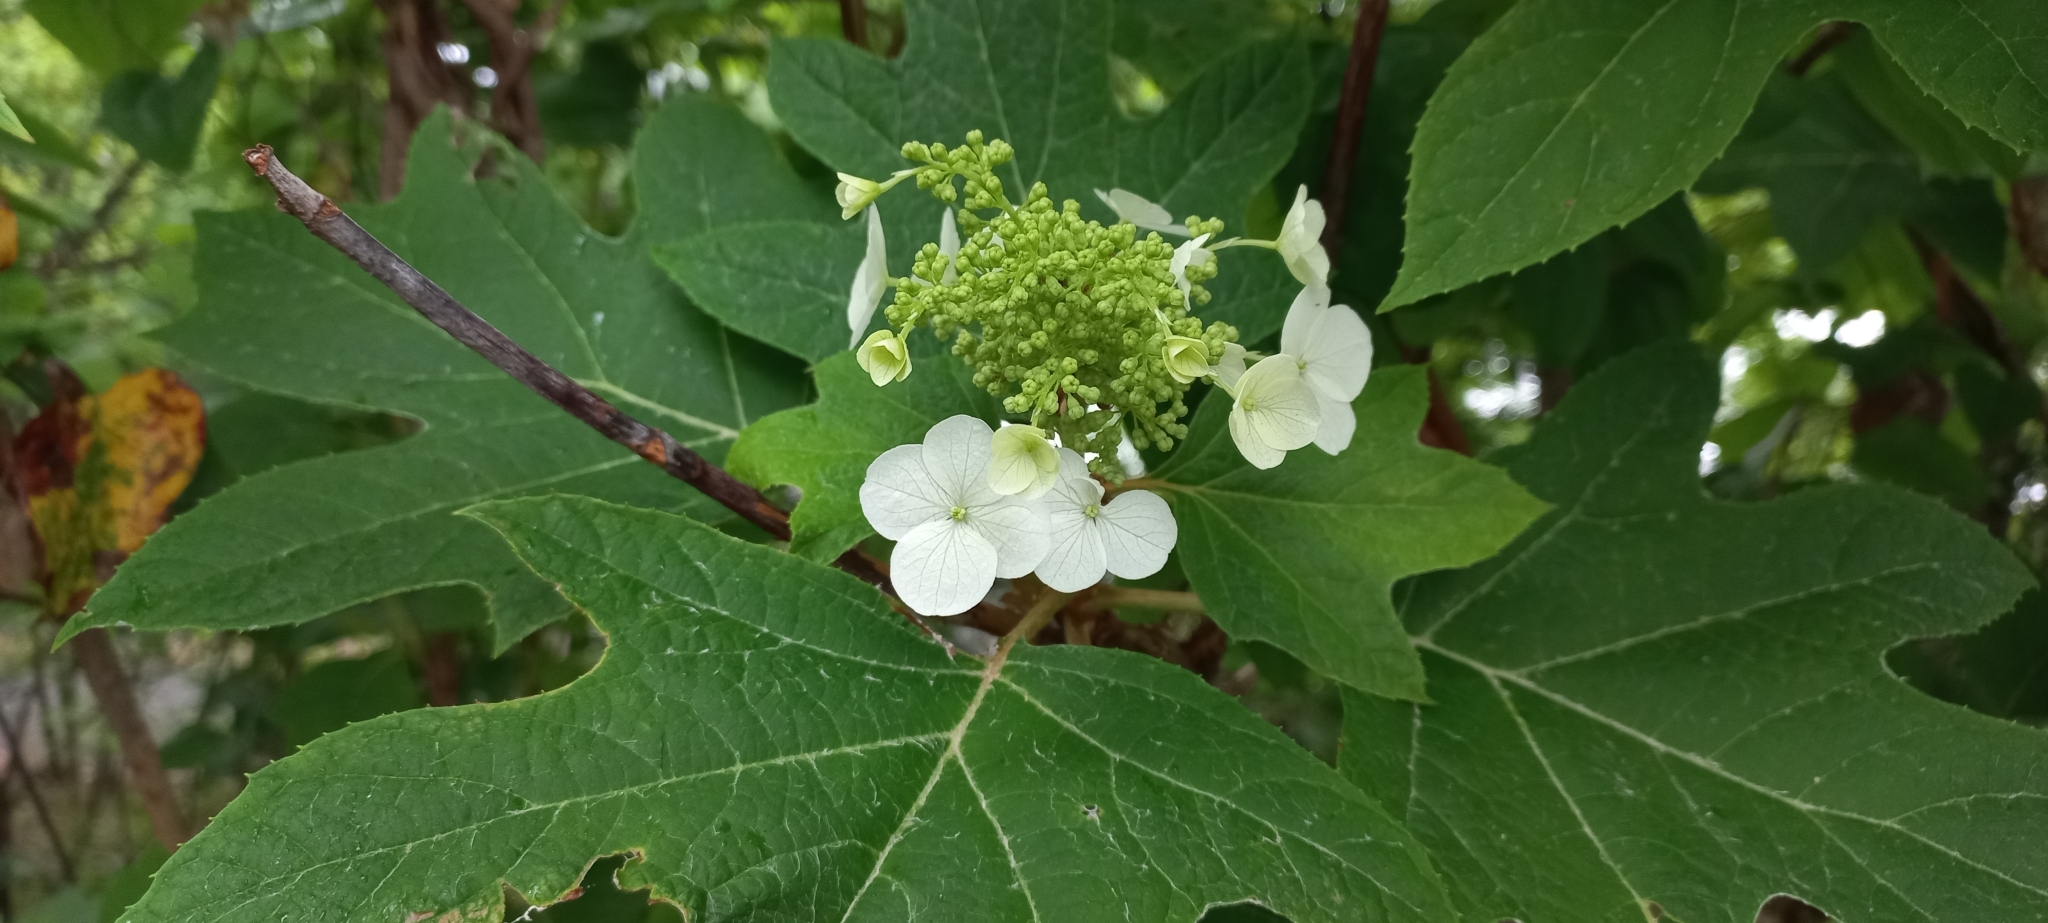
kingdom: Plantae
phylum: Tracheophyta
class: Magnoliopsida
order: Cornales
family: Hydrangeaceae
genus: Hydrangea
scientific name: Hydrangea quercifolia
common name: Oak-leaf hydrangea
